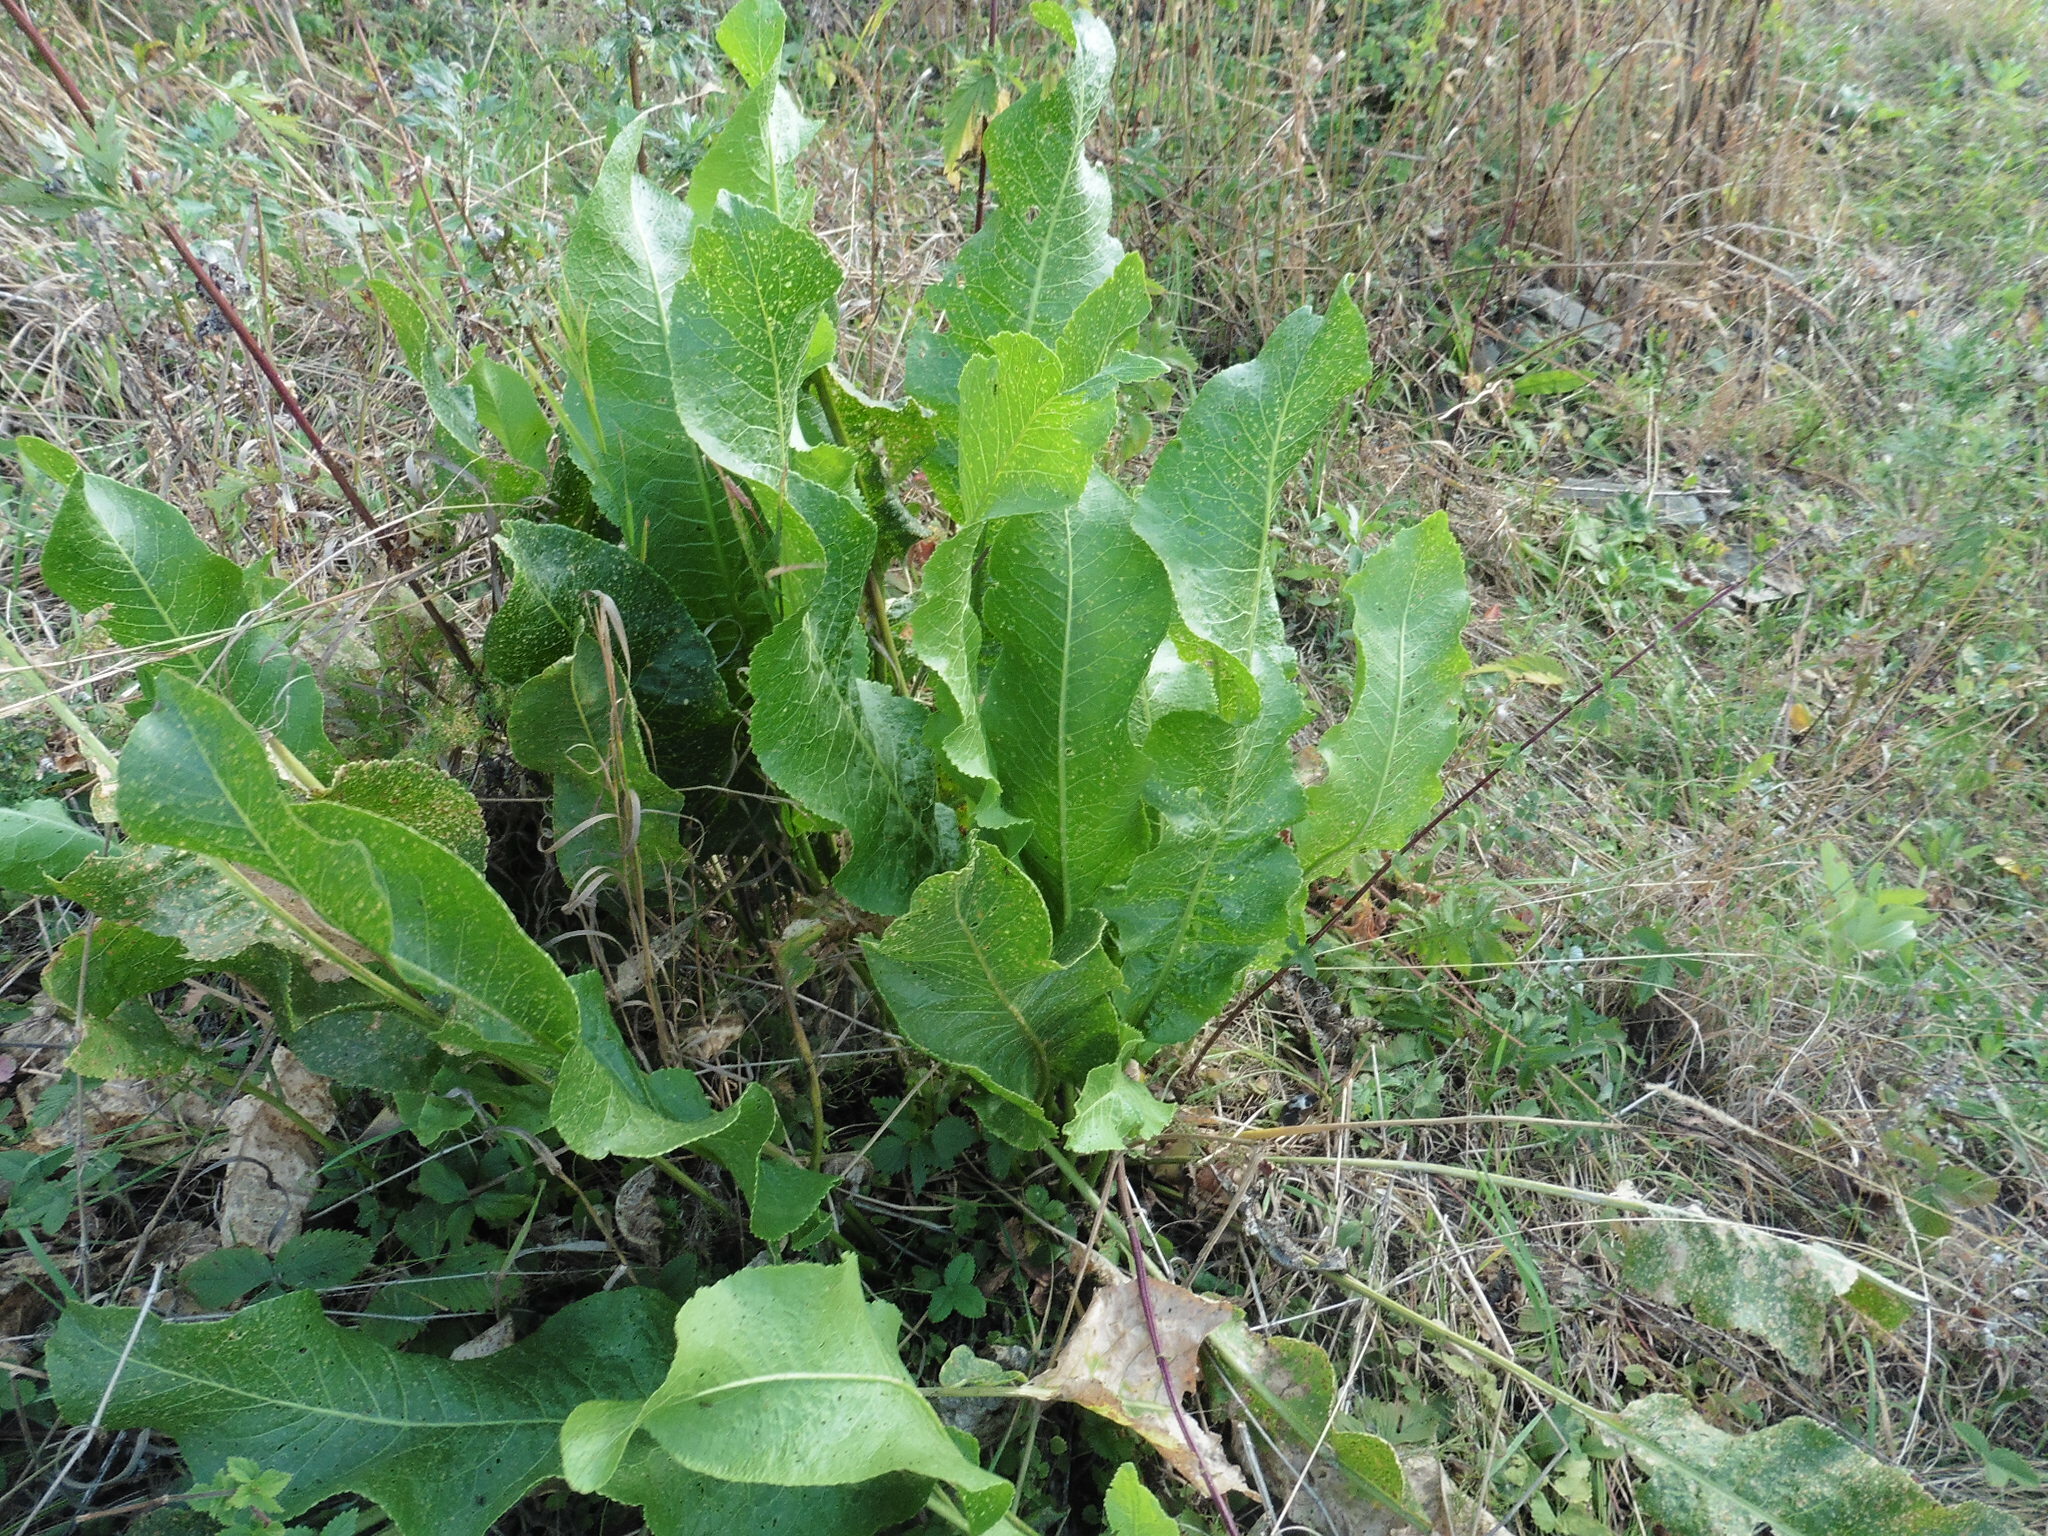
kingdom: Plantae
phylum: Tracheophyta
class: Magnoliopsida
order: Brassicales
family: Brassicaceae
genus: Armoracia
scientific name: Armoracia rusticana
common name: Horseradish
